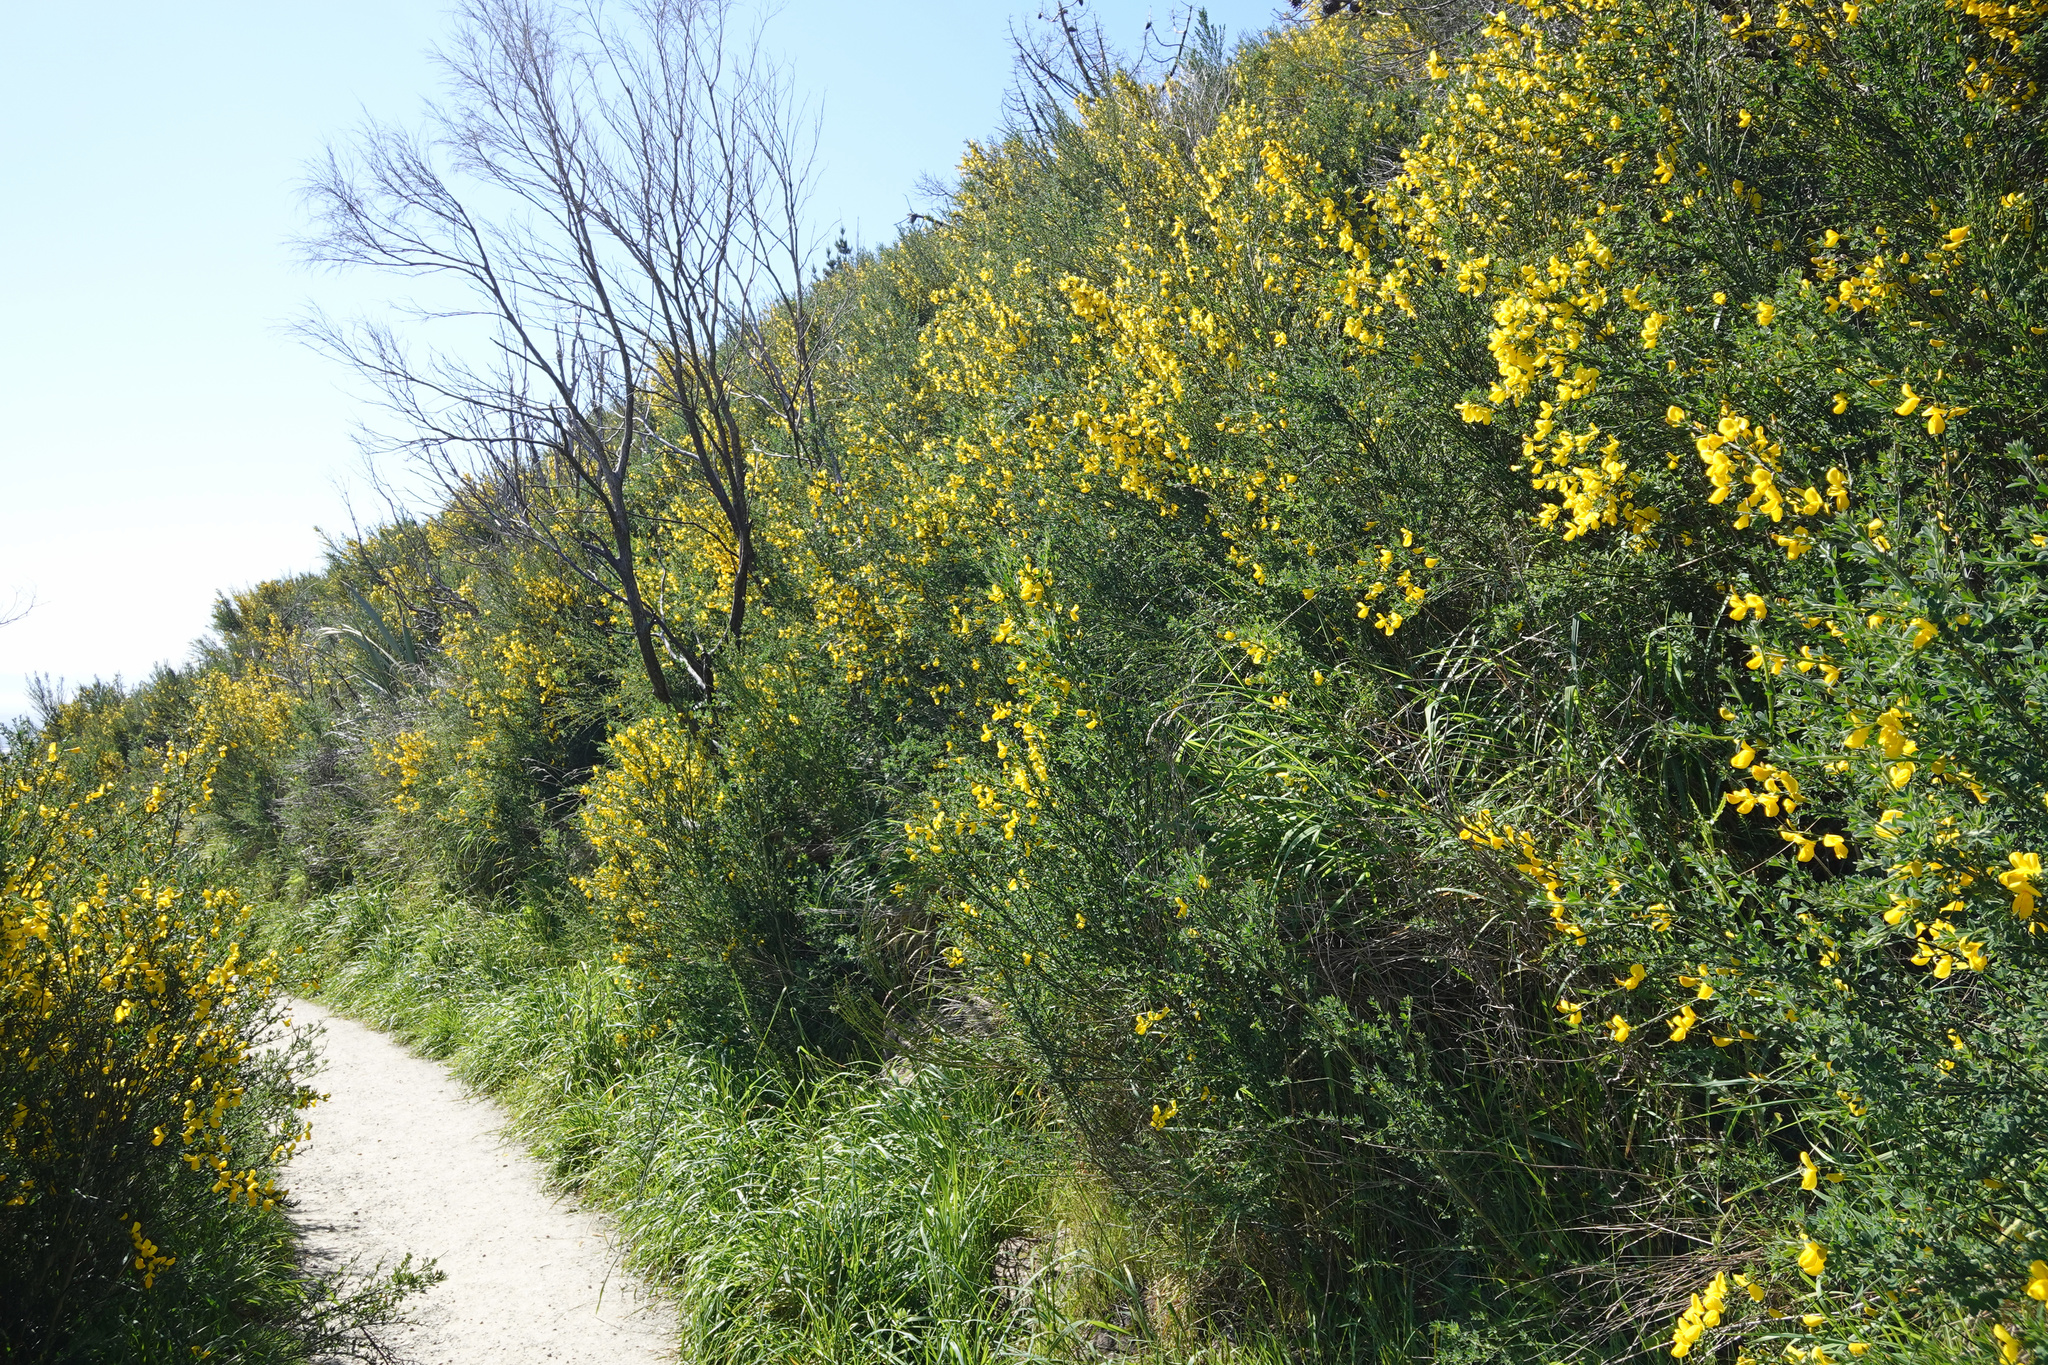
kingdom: Plantae
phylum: Tracheophyta
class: Magnoliopsida
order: Fabales
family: Fabaceae
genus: Cytisus
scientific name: Cytisus scoparius
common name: Scotch broom
